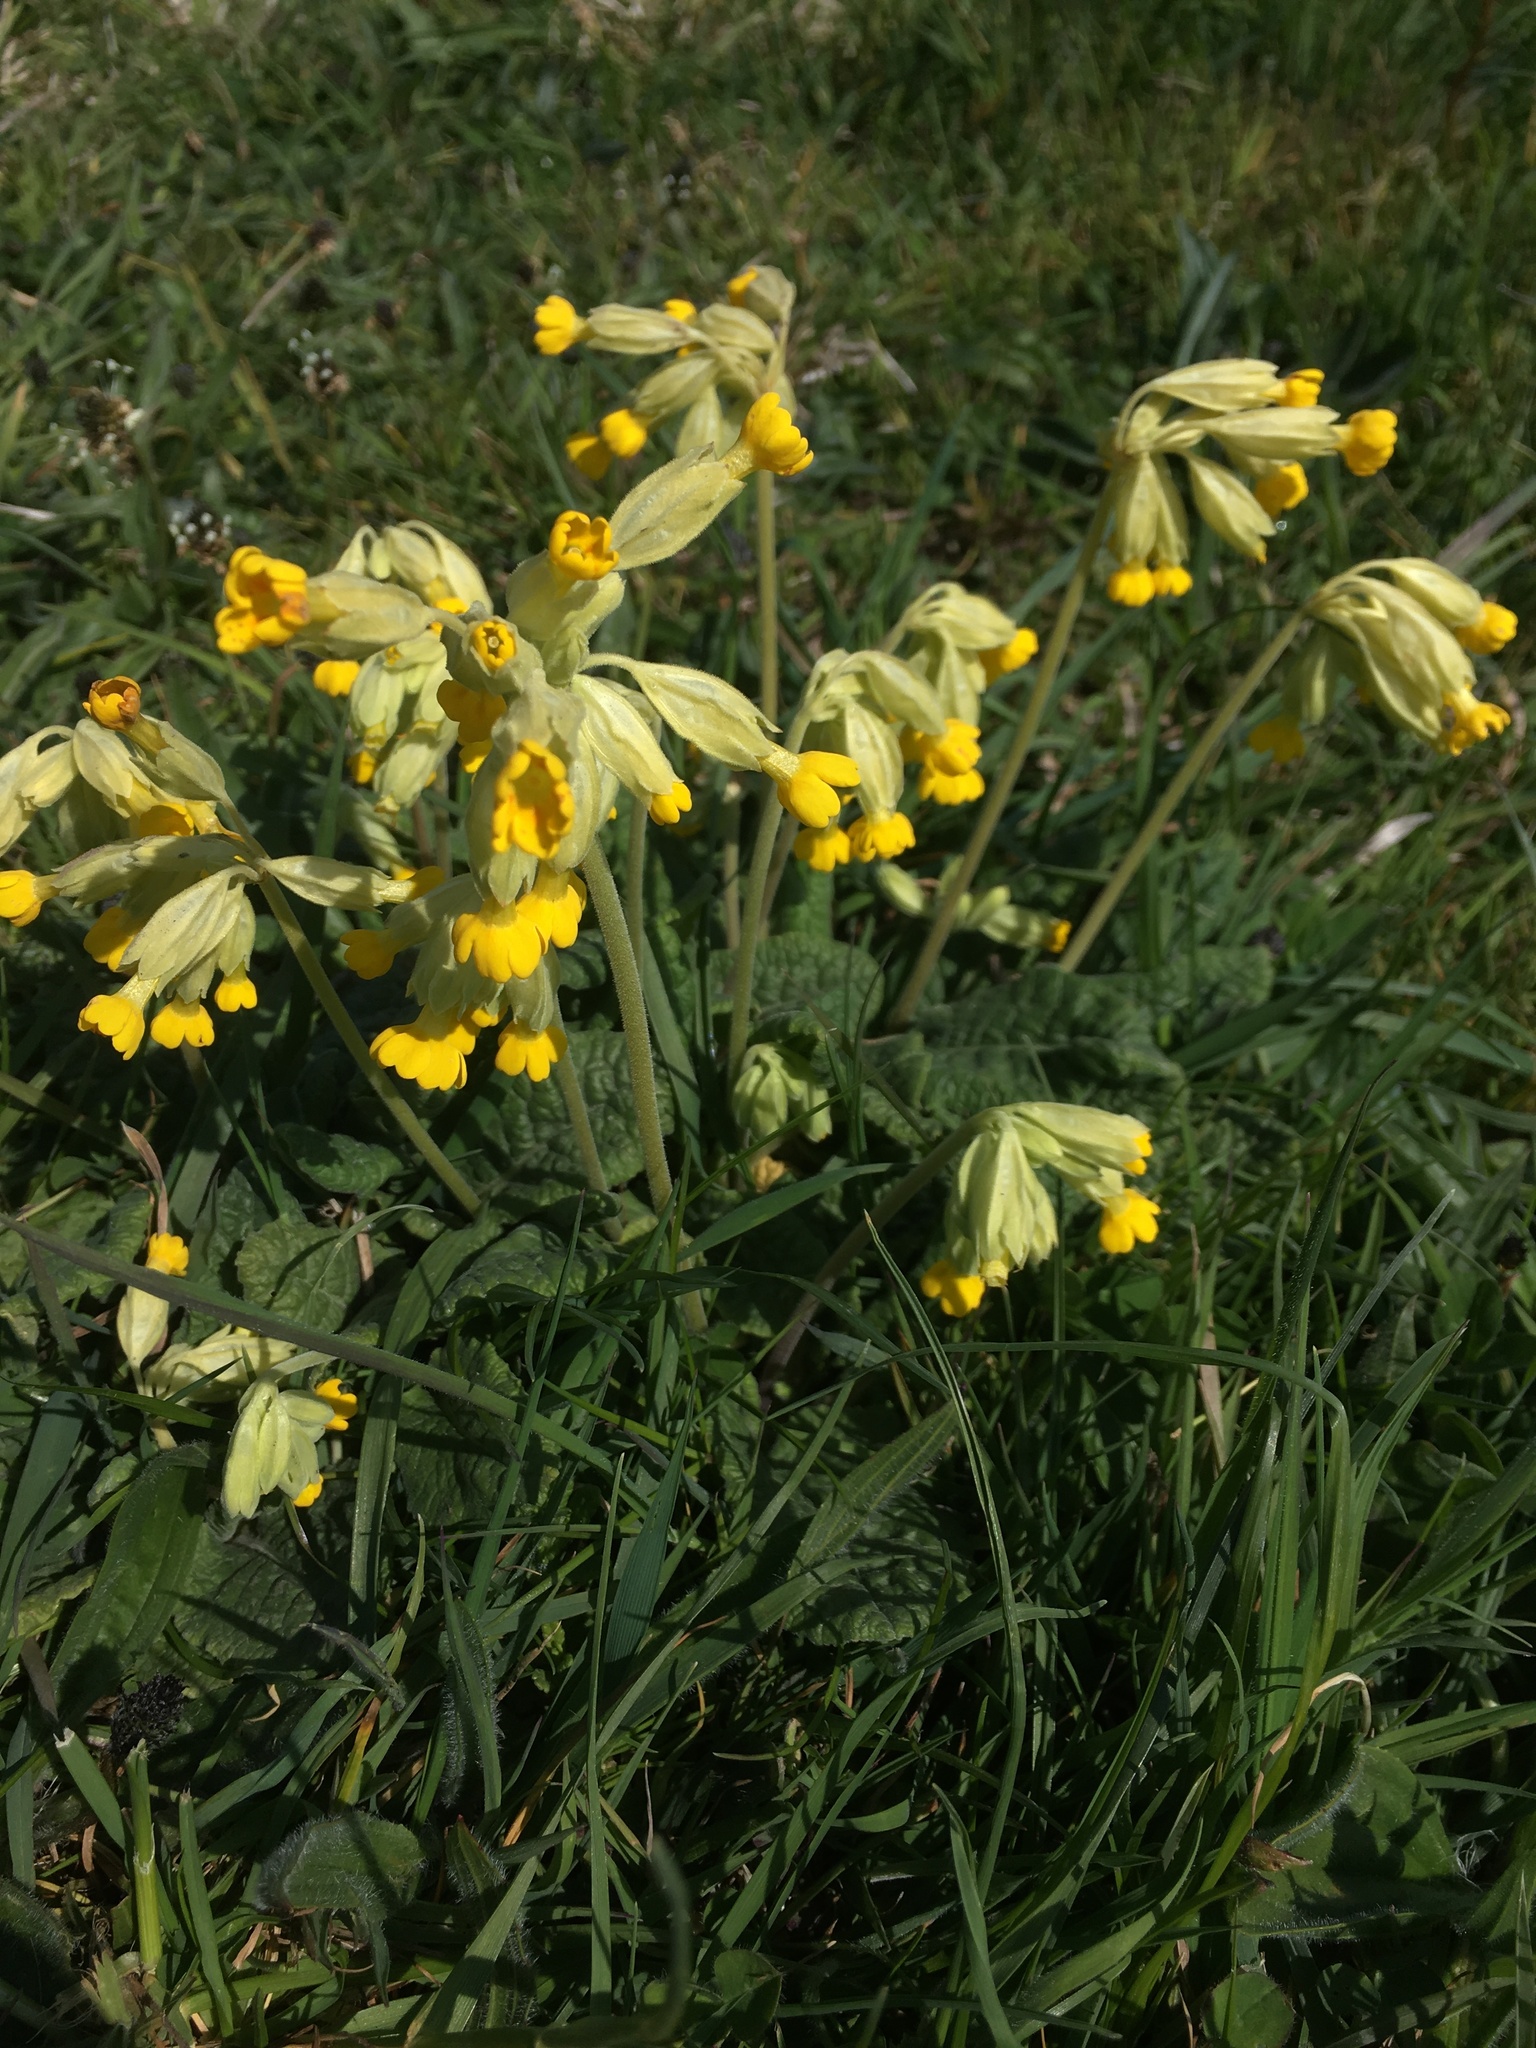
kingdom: Plantae
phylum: Tracheophyta
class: Magnoliopsida
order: Ericales
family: Primulaceae
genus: Primula
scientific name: Primula veris
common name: Cowslip
